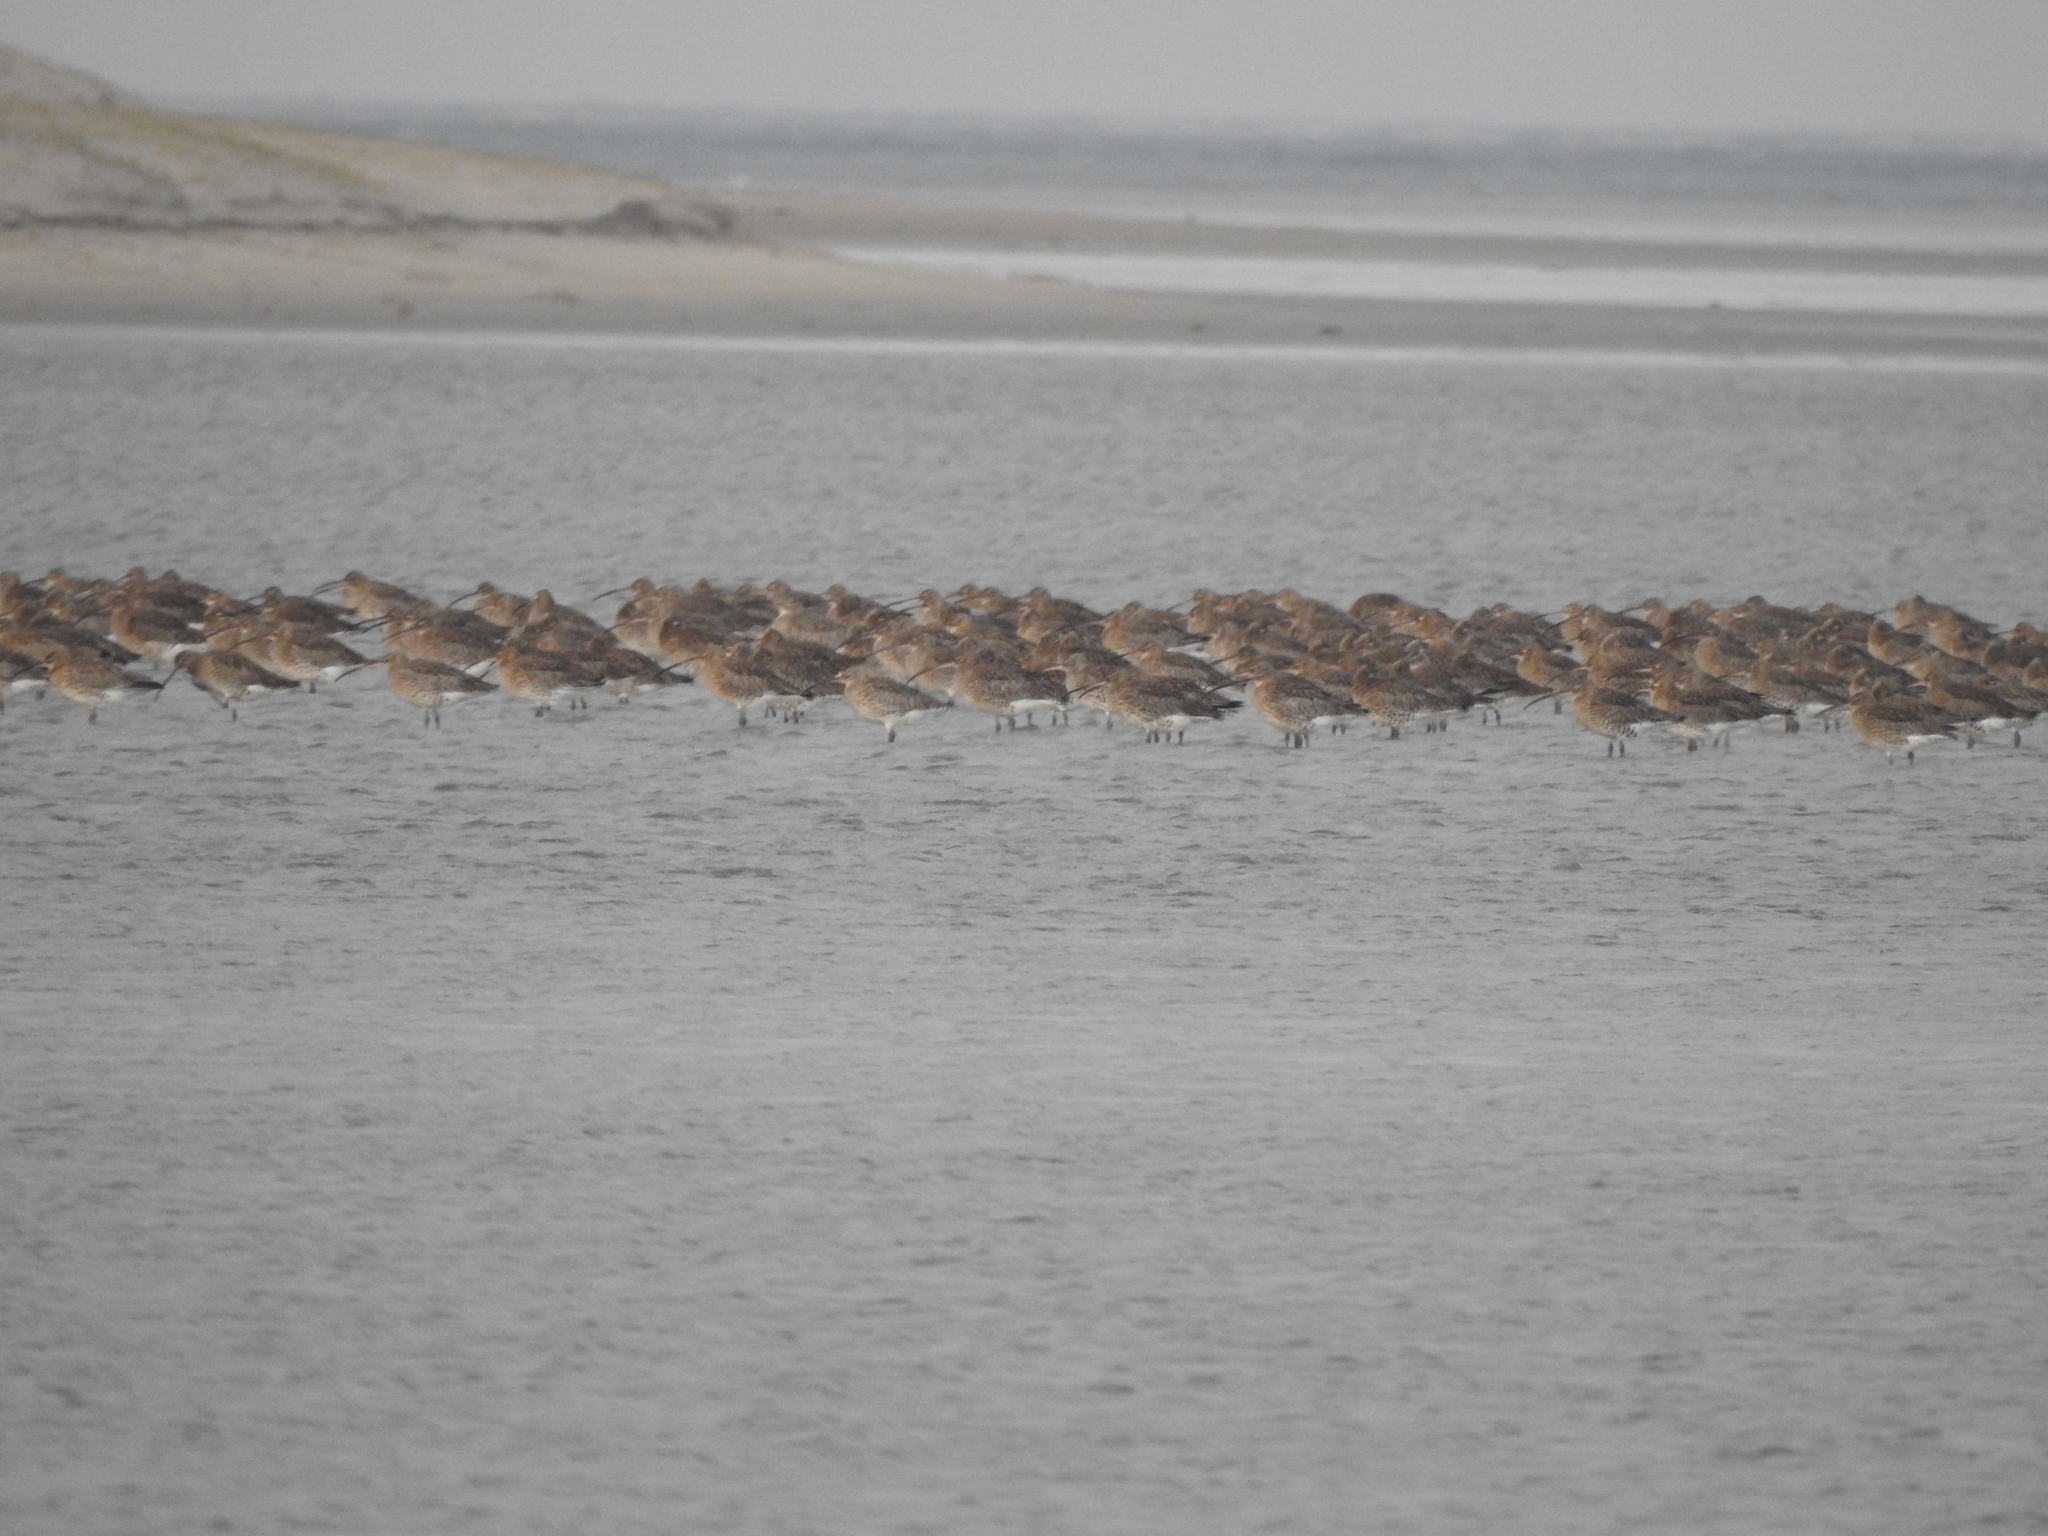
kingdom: Animalia
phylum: Chordata
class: Aves
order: Charadriiformes
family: Scolopacidae
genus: Numenius
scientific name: Numenius arquata
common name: Eurasian curlew
